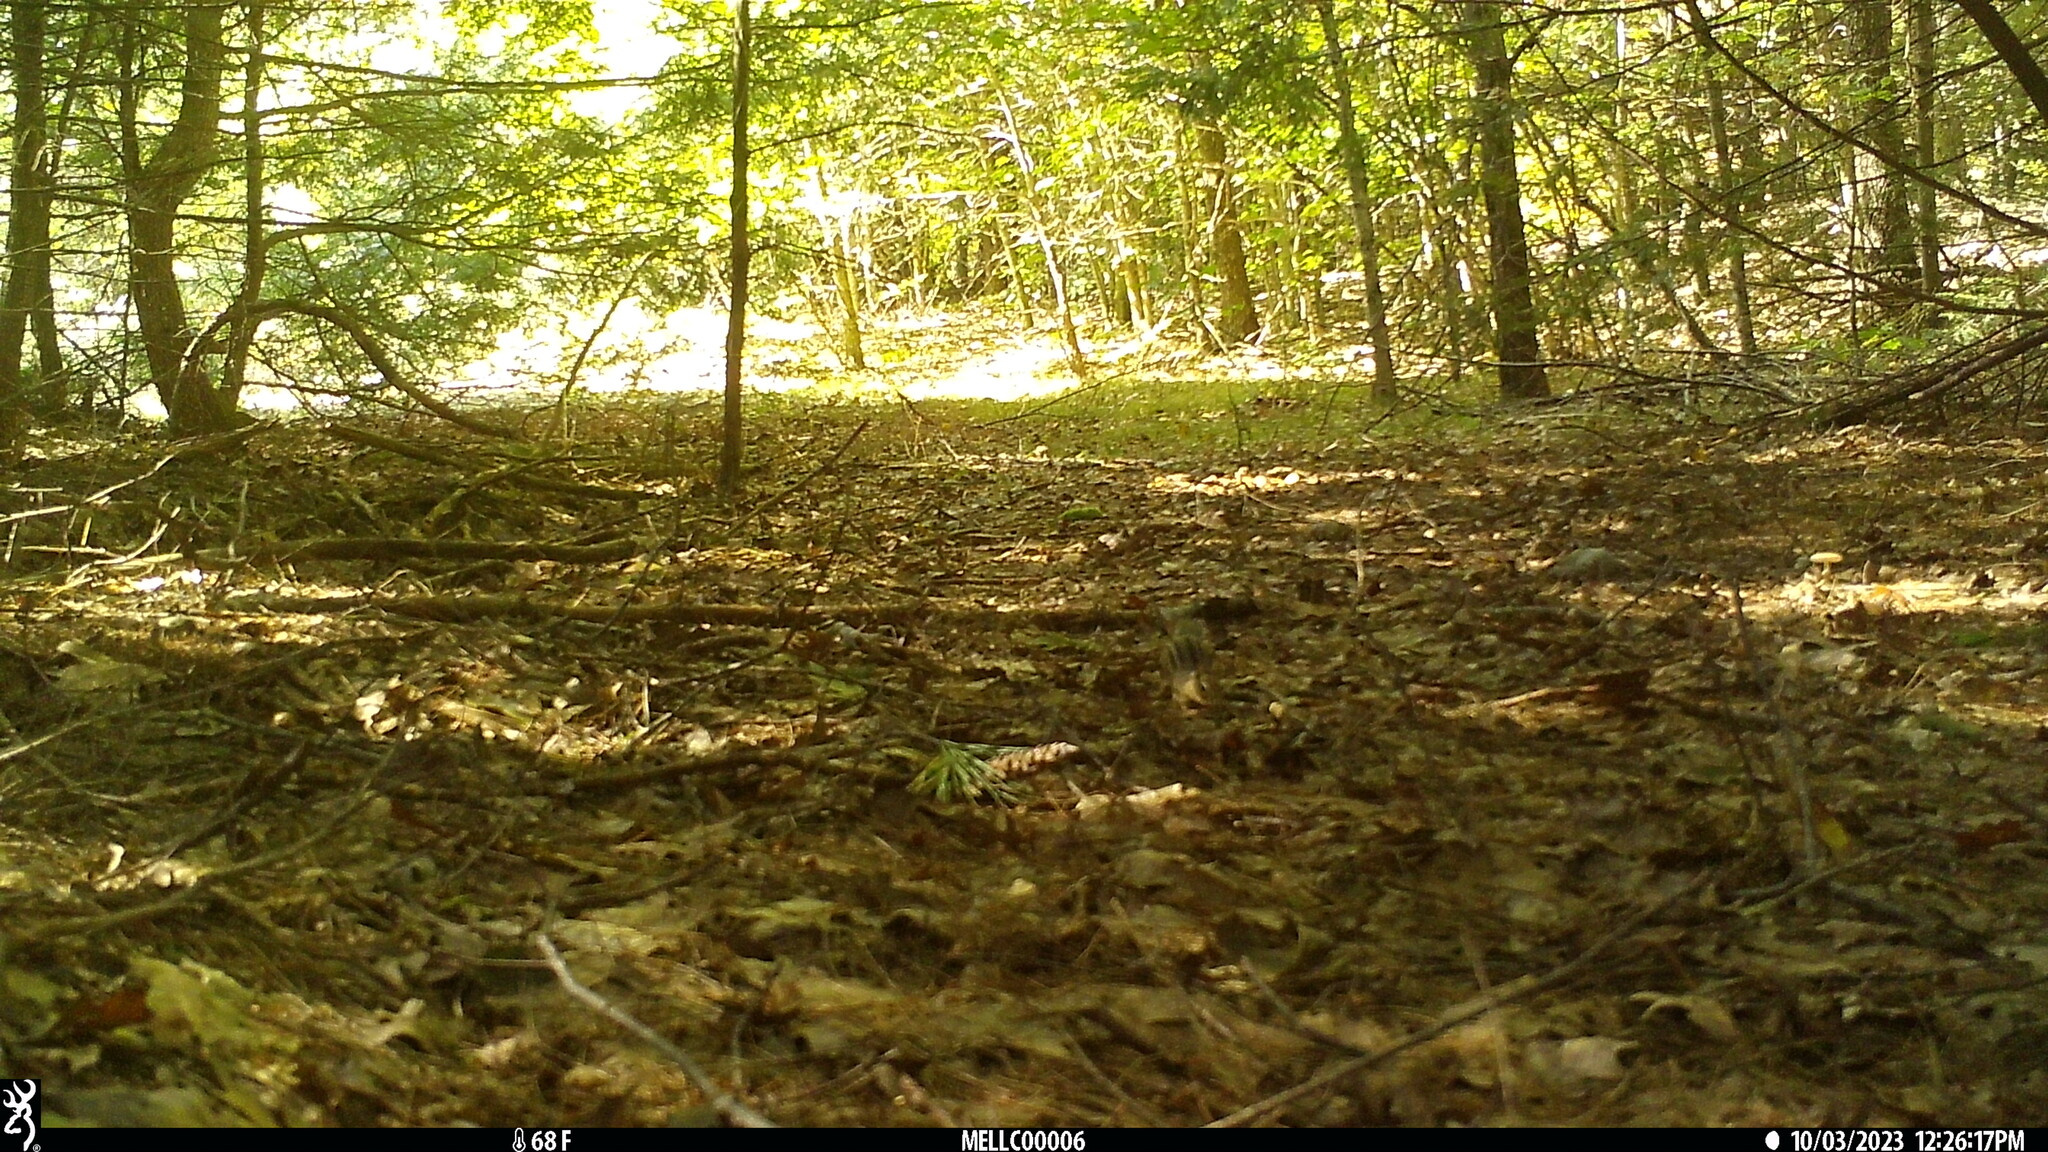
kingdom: Animalia
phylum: Chordata
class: Mammalia
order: Rodentia
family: Sciuridae
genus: Tamias
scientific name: Tamias striatus
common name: Eastern chipmunk
